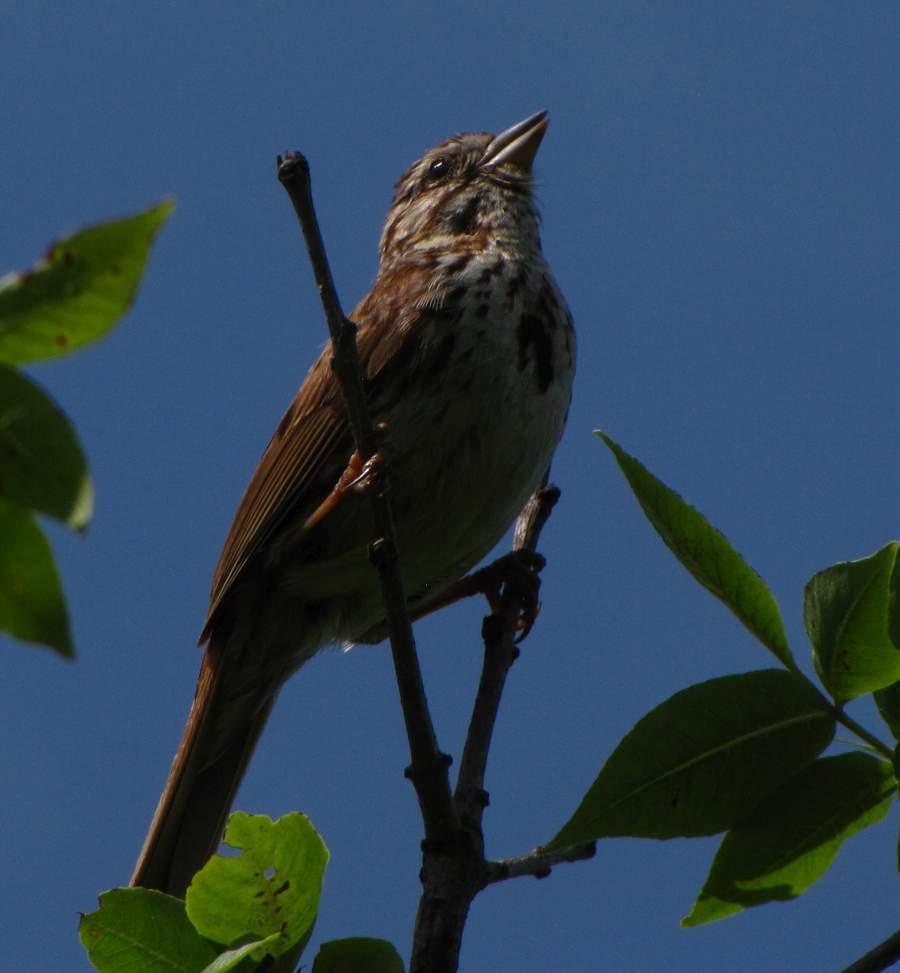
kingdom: Animalia
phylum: Chordata
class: Aves
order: Passeriformes
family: Passerellidae
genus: Melospiza
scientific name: Melospiza melodia
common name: Song sparrow
